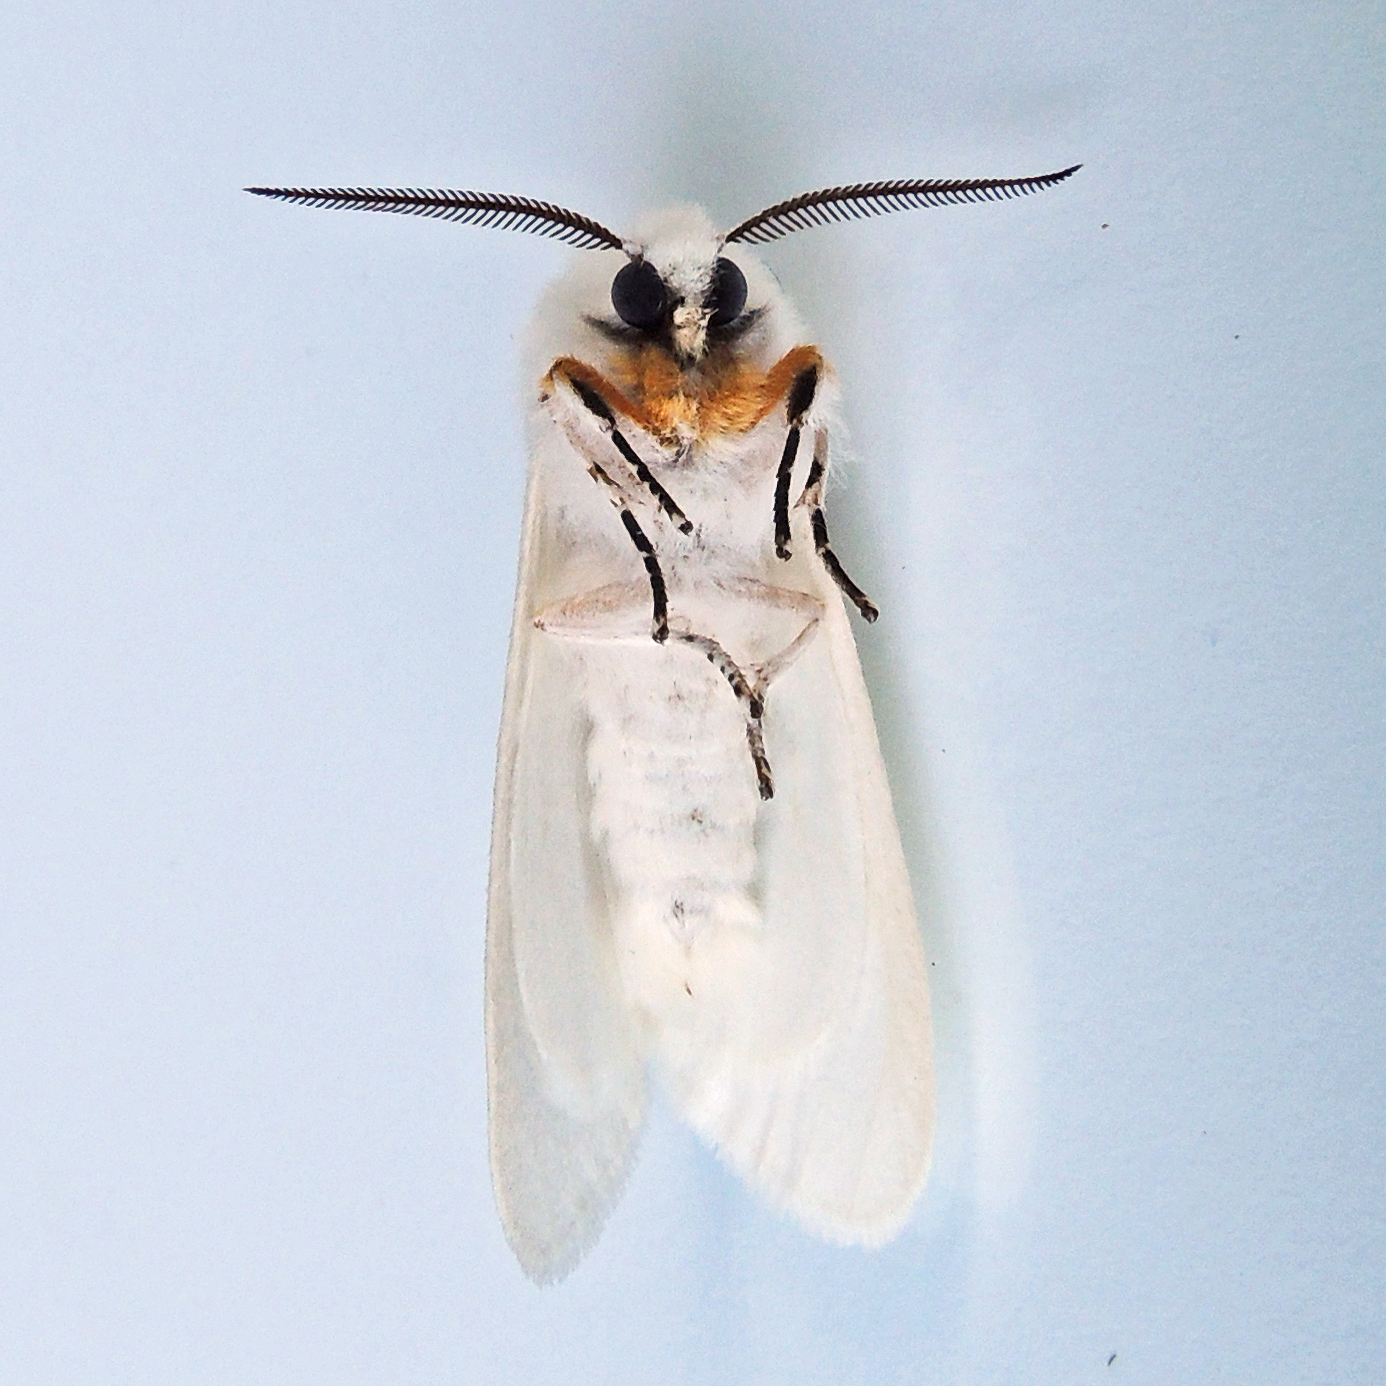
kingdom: Animalia
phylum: Arthropoda
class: Insecta
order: Lepidoptera
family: Erebidae
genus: Hyphantria
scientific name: Hyphantria cunea
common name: American white moth
